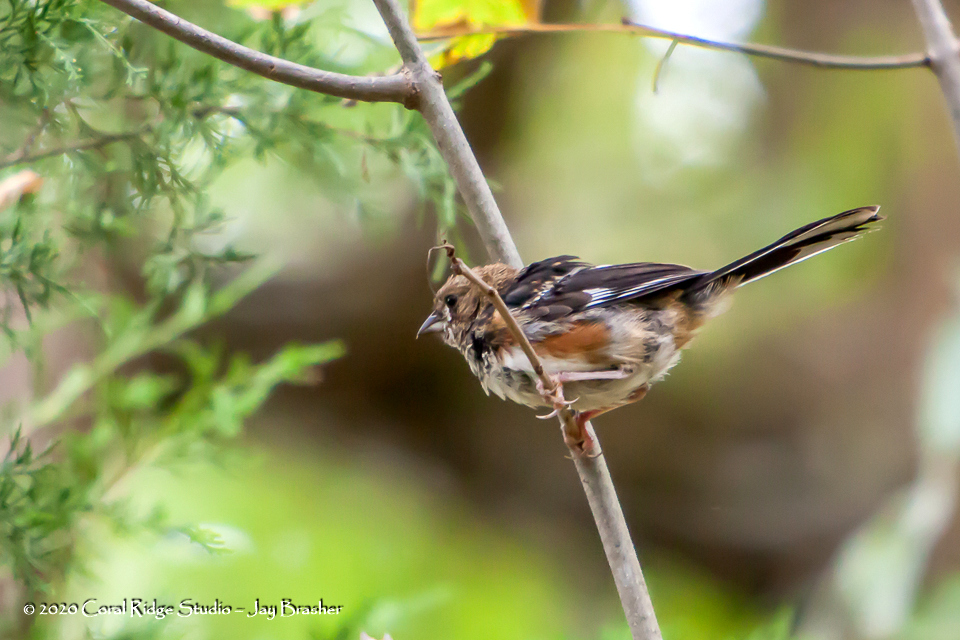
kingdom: Animalia
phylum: Chordata
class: Aves
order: Passeriformes
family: Passerellidae
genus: Pipilo
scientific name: Pipilo erythrophthalmus
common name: Eastern towhee
